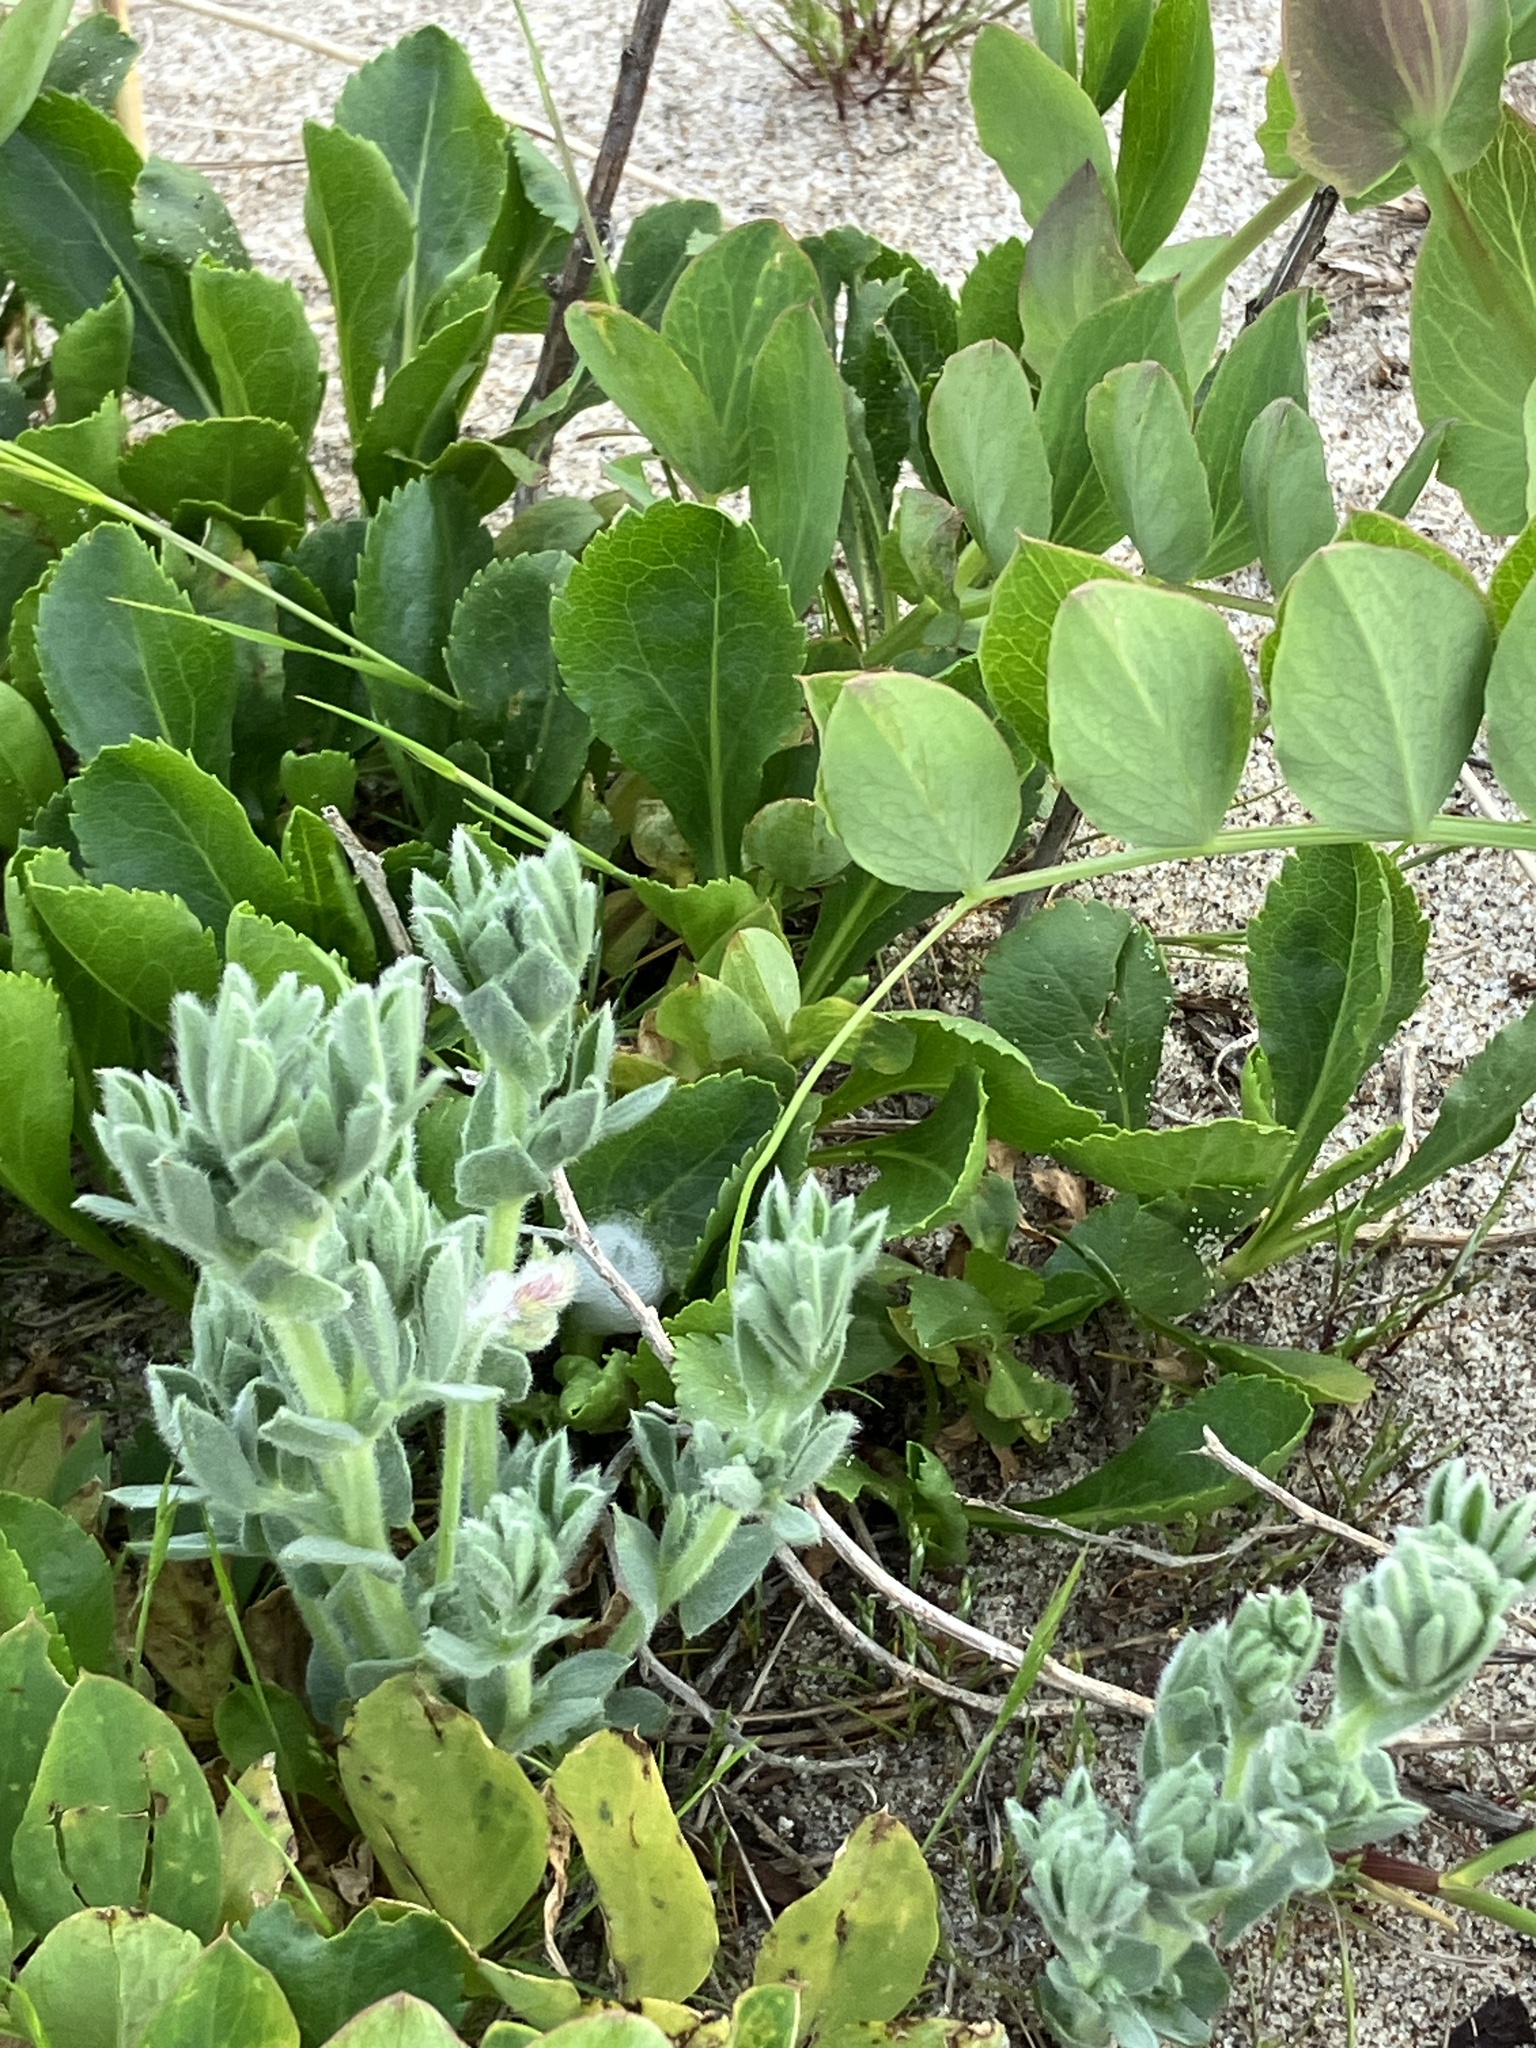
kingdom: Plantae
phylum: Tracheophyta
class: Magnoliopsida
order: Fabales
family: Fabaceae
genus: Lathyrus
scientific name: Lathyrus littoralis
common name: Dune sweet pea
